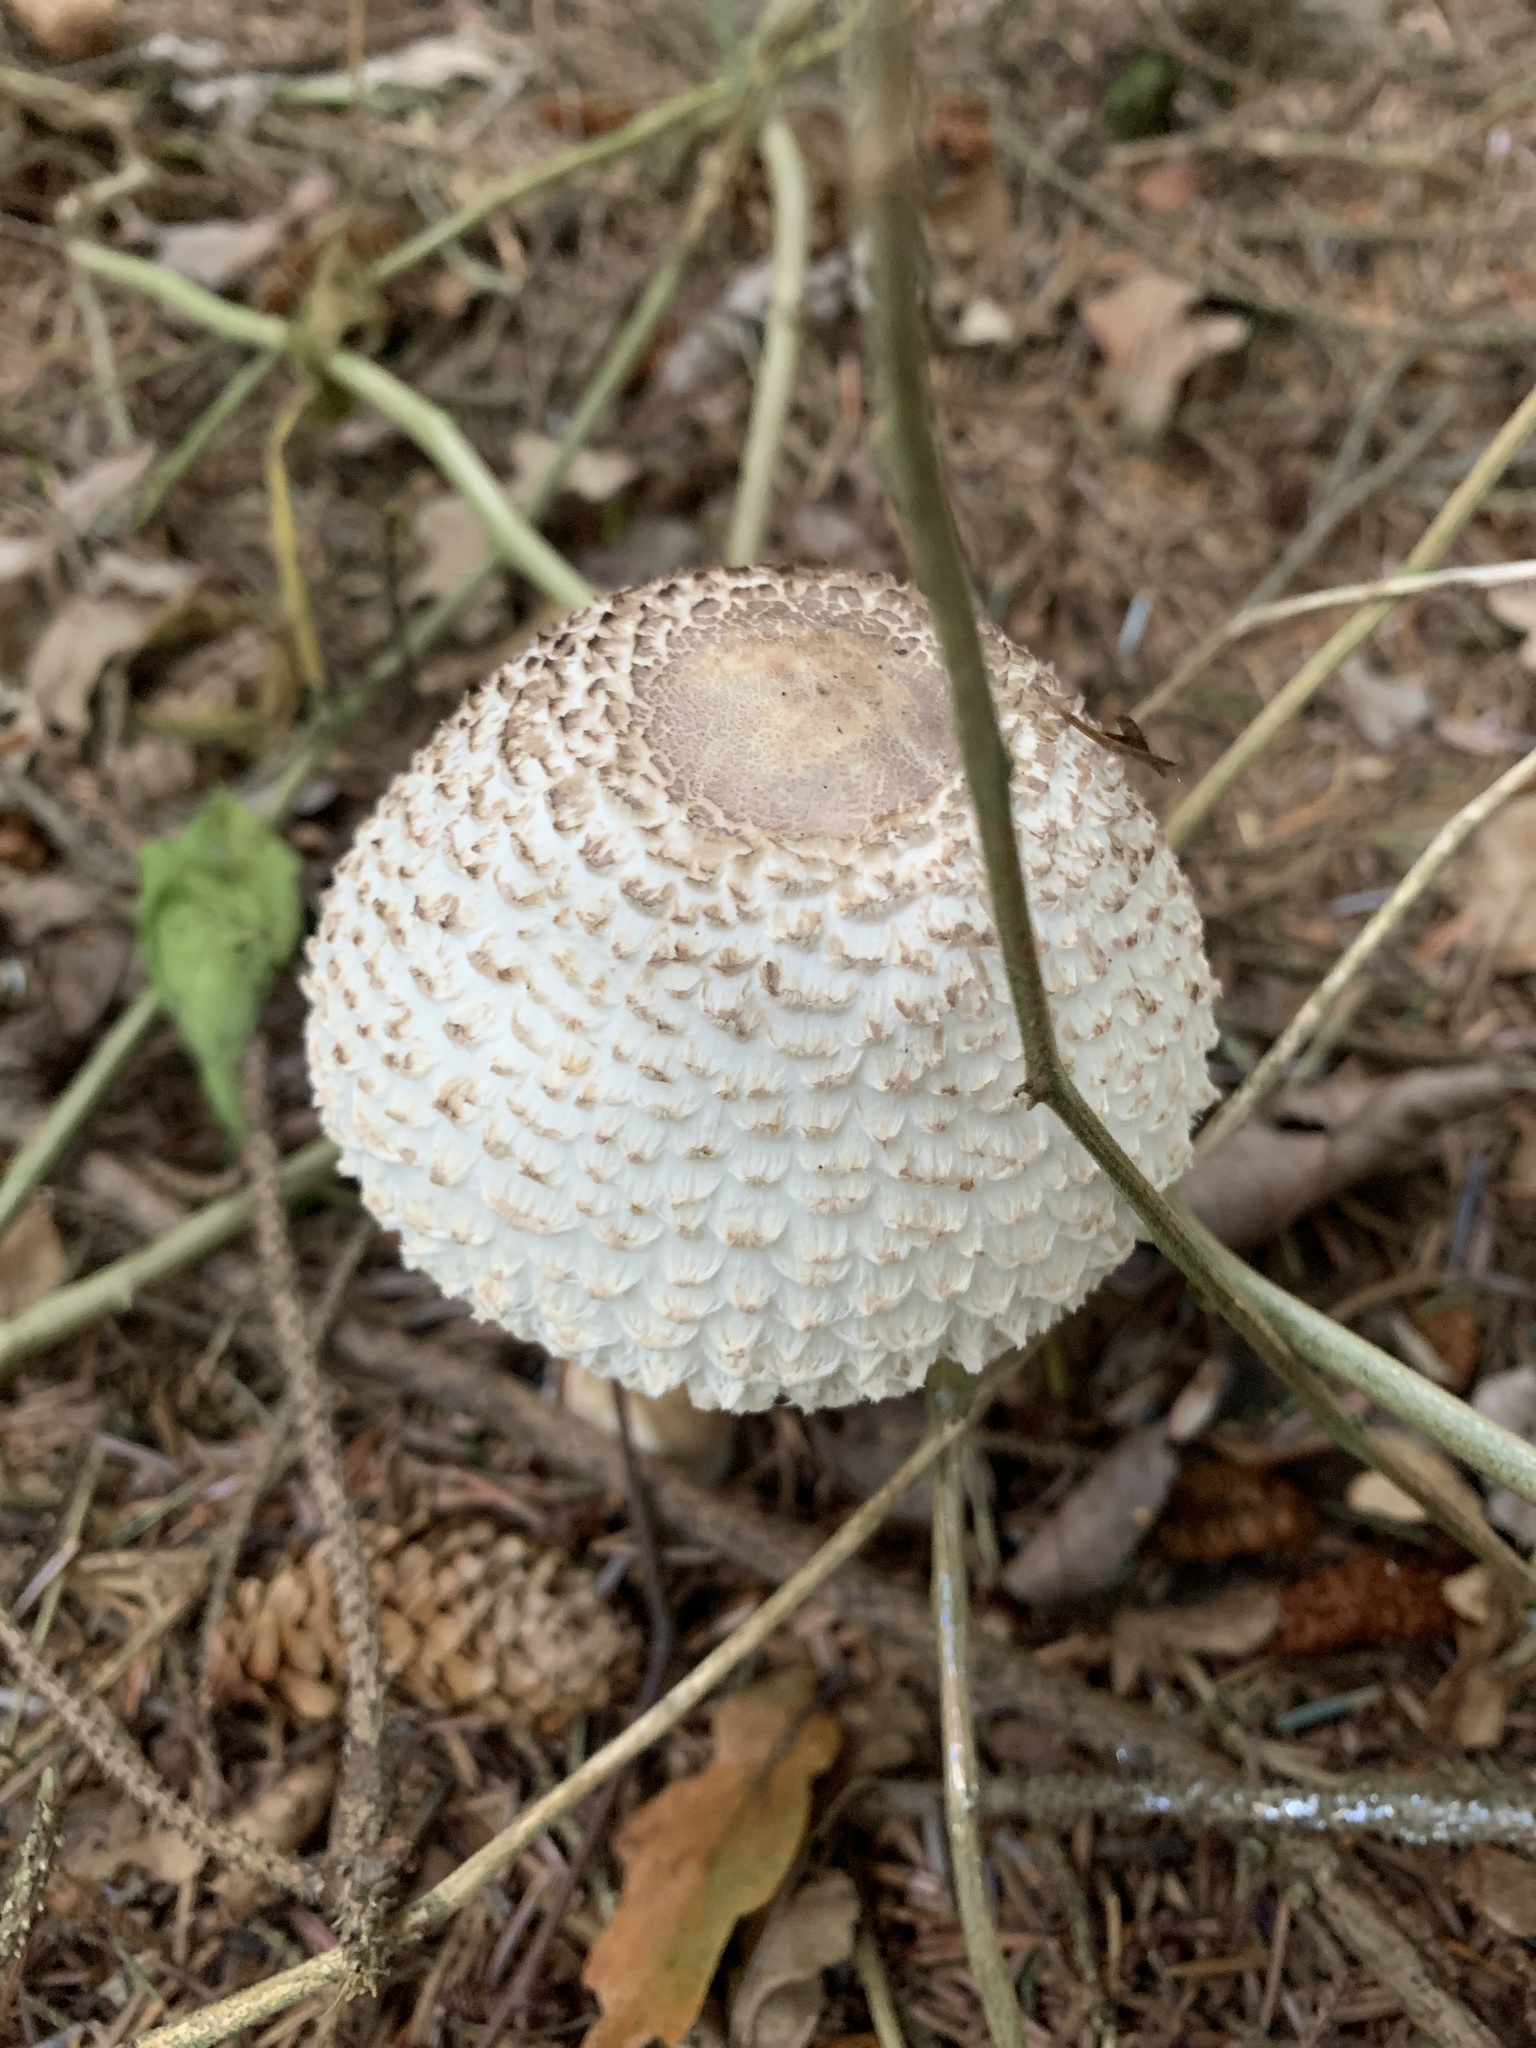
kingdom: Fungi
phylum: Basidiomycota
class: Agaricomycetes
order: Agaricales
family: Agaricaceae
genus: Leucoagaricus
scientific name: Leucoagaricus nympharum
